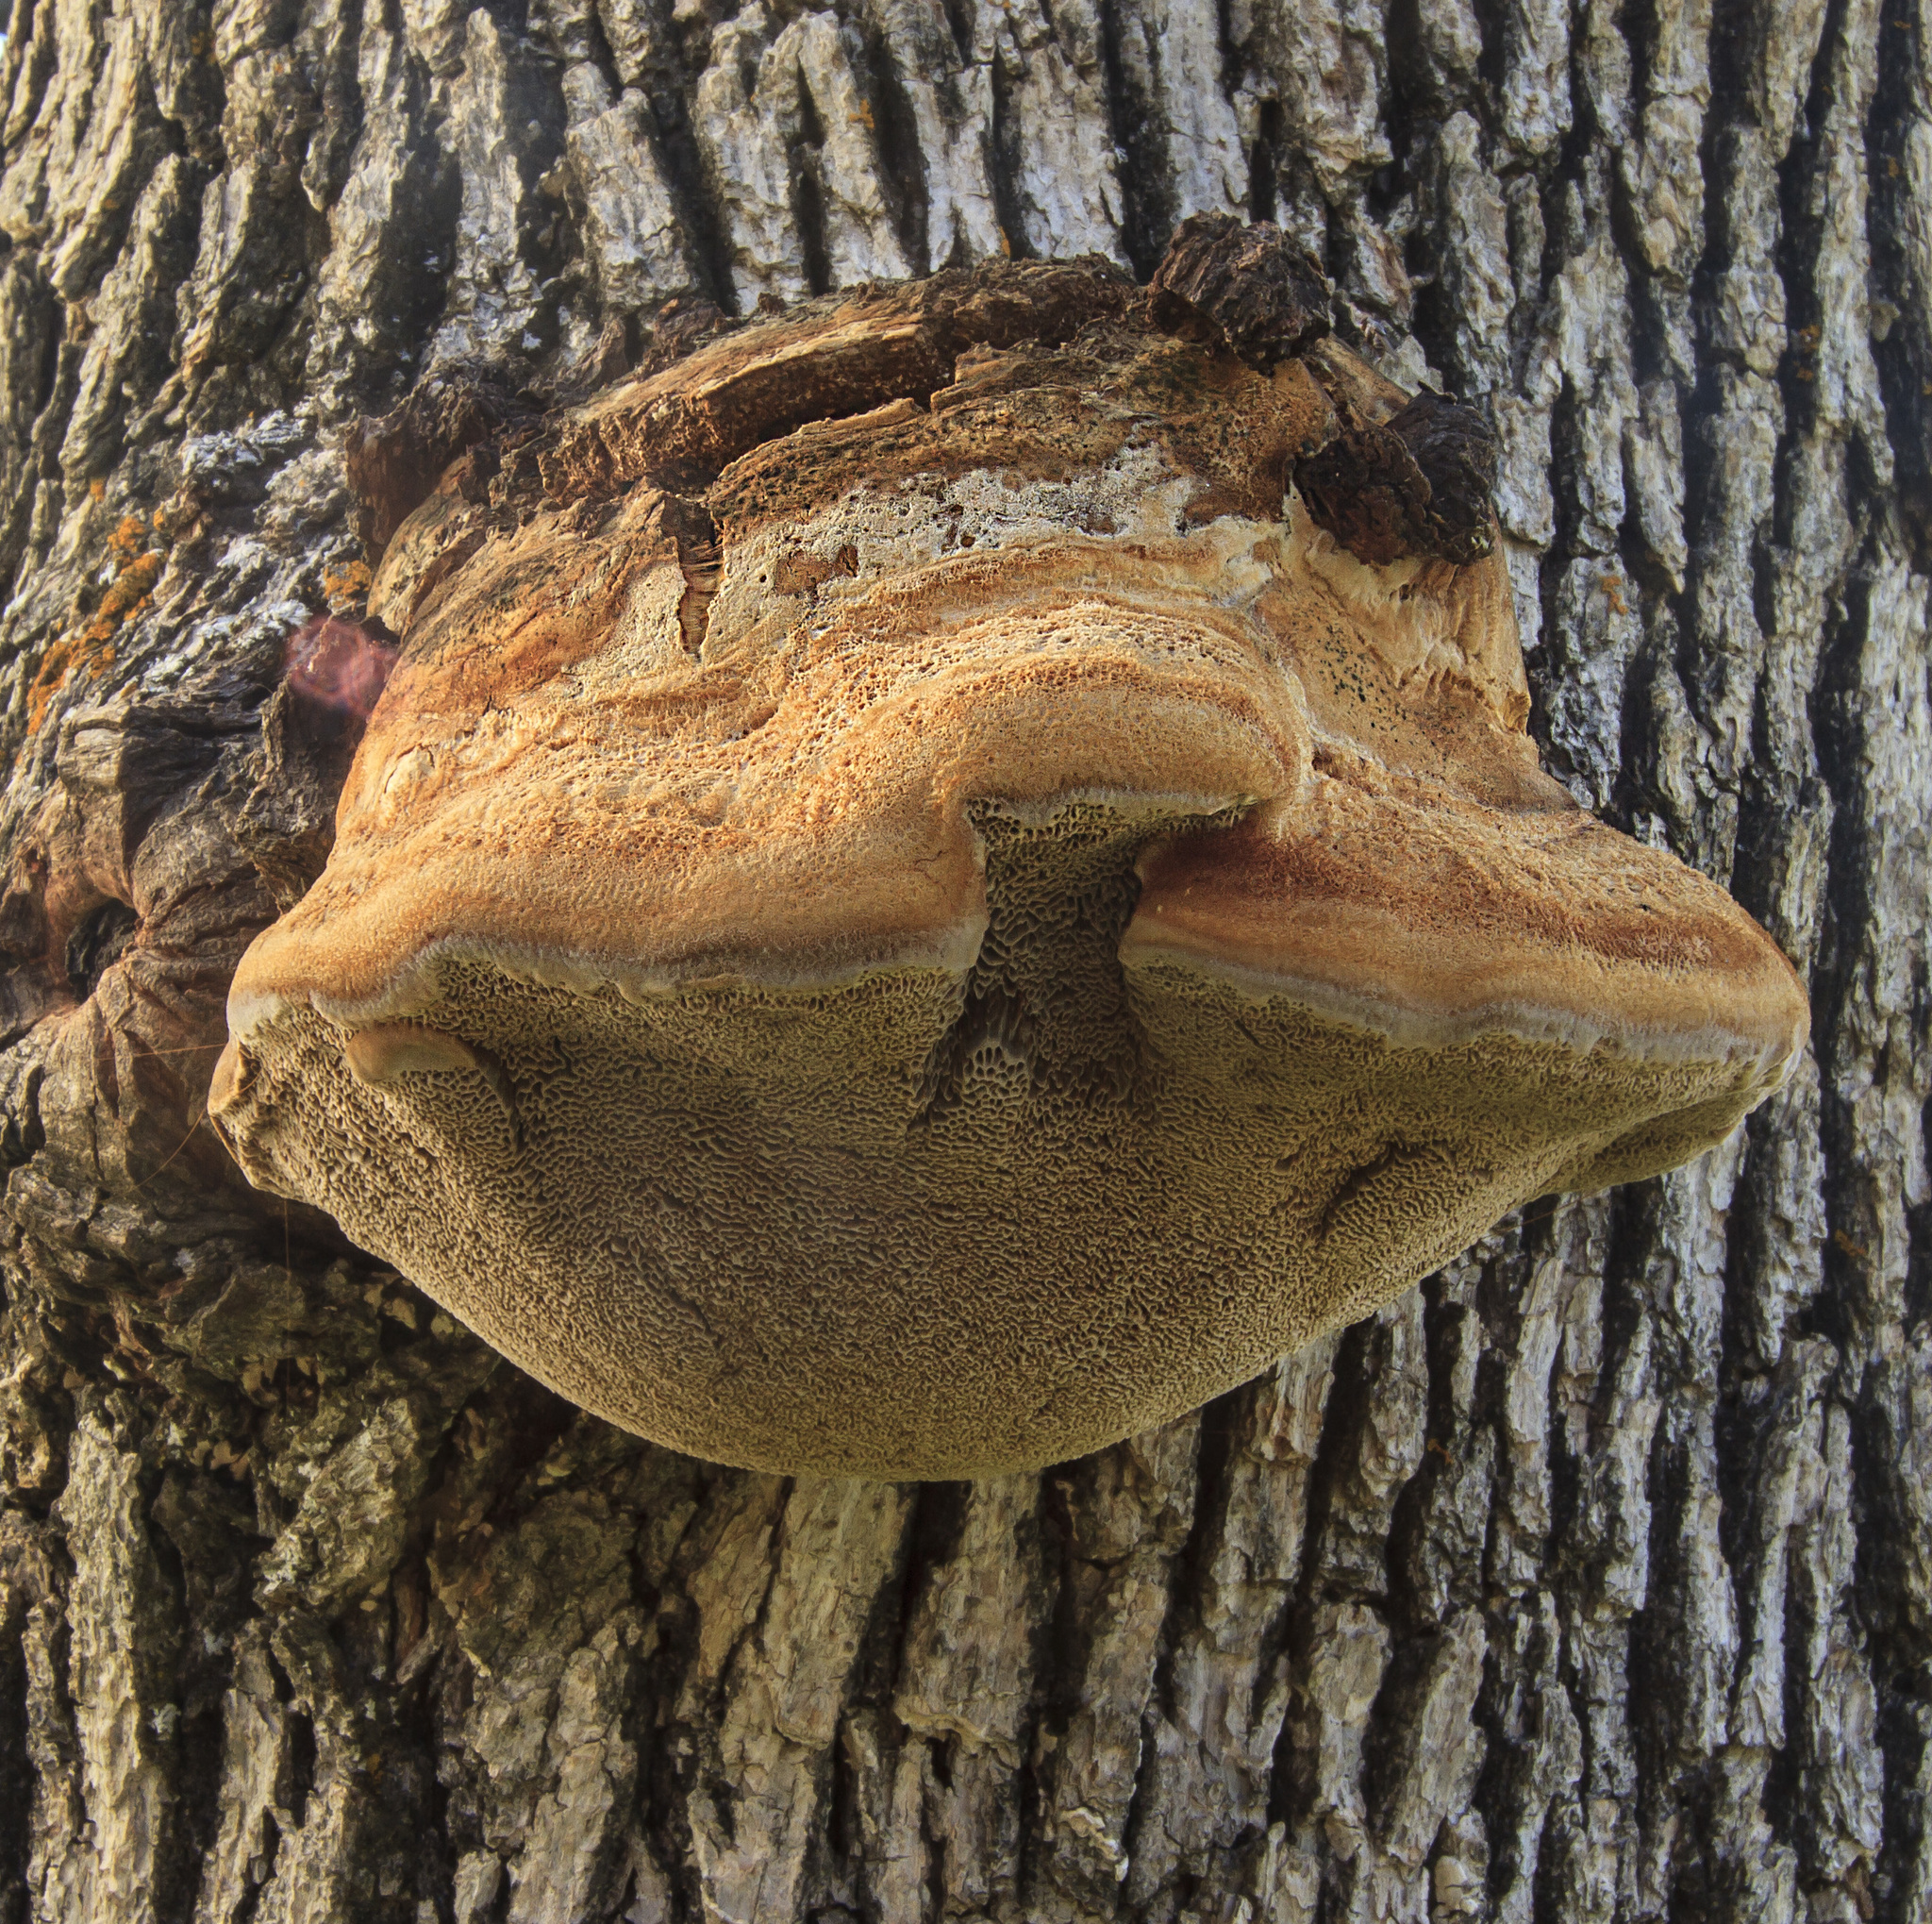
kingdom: Fungi
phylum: Basidiomycota
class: Agaricomycetes
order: Hymenochaetales
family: Hymenochaetaceae
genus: Inocutis
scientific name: Inocutis dryophila
